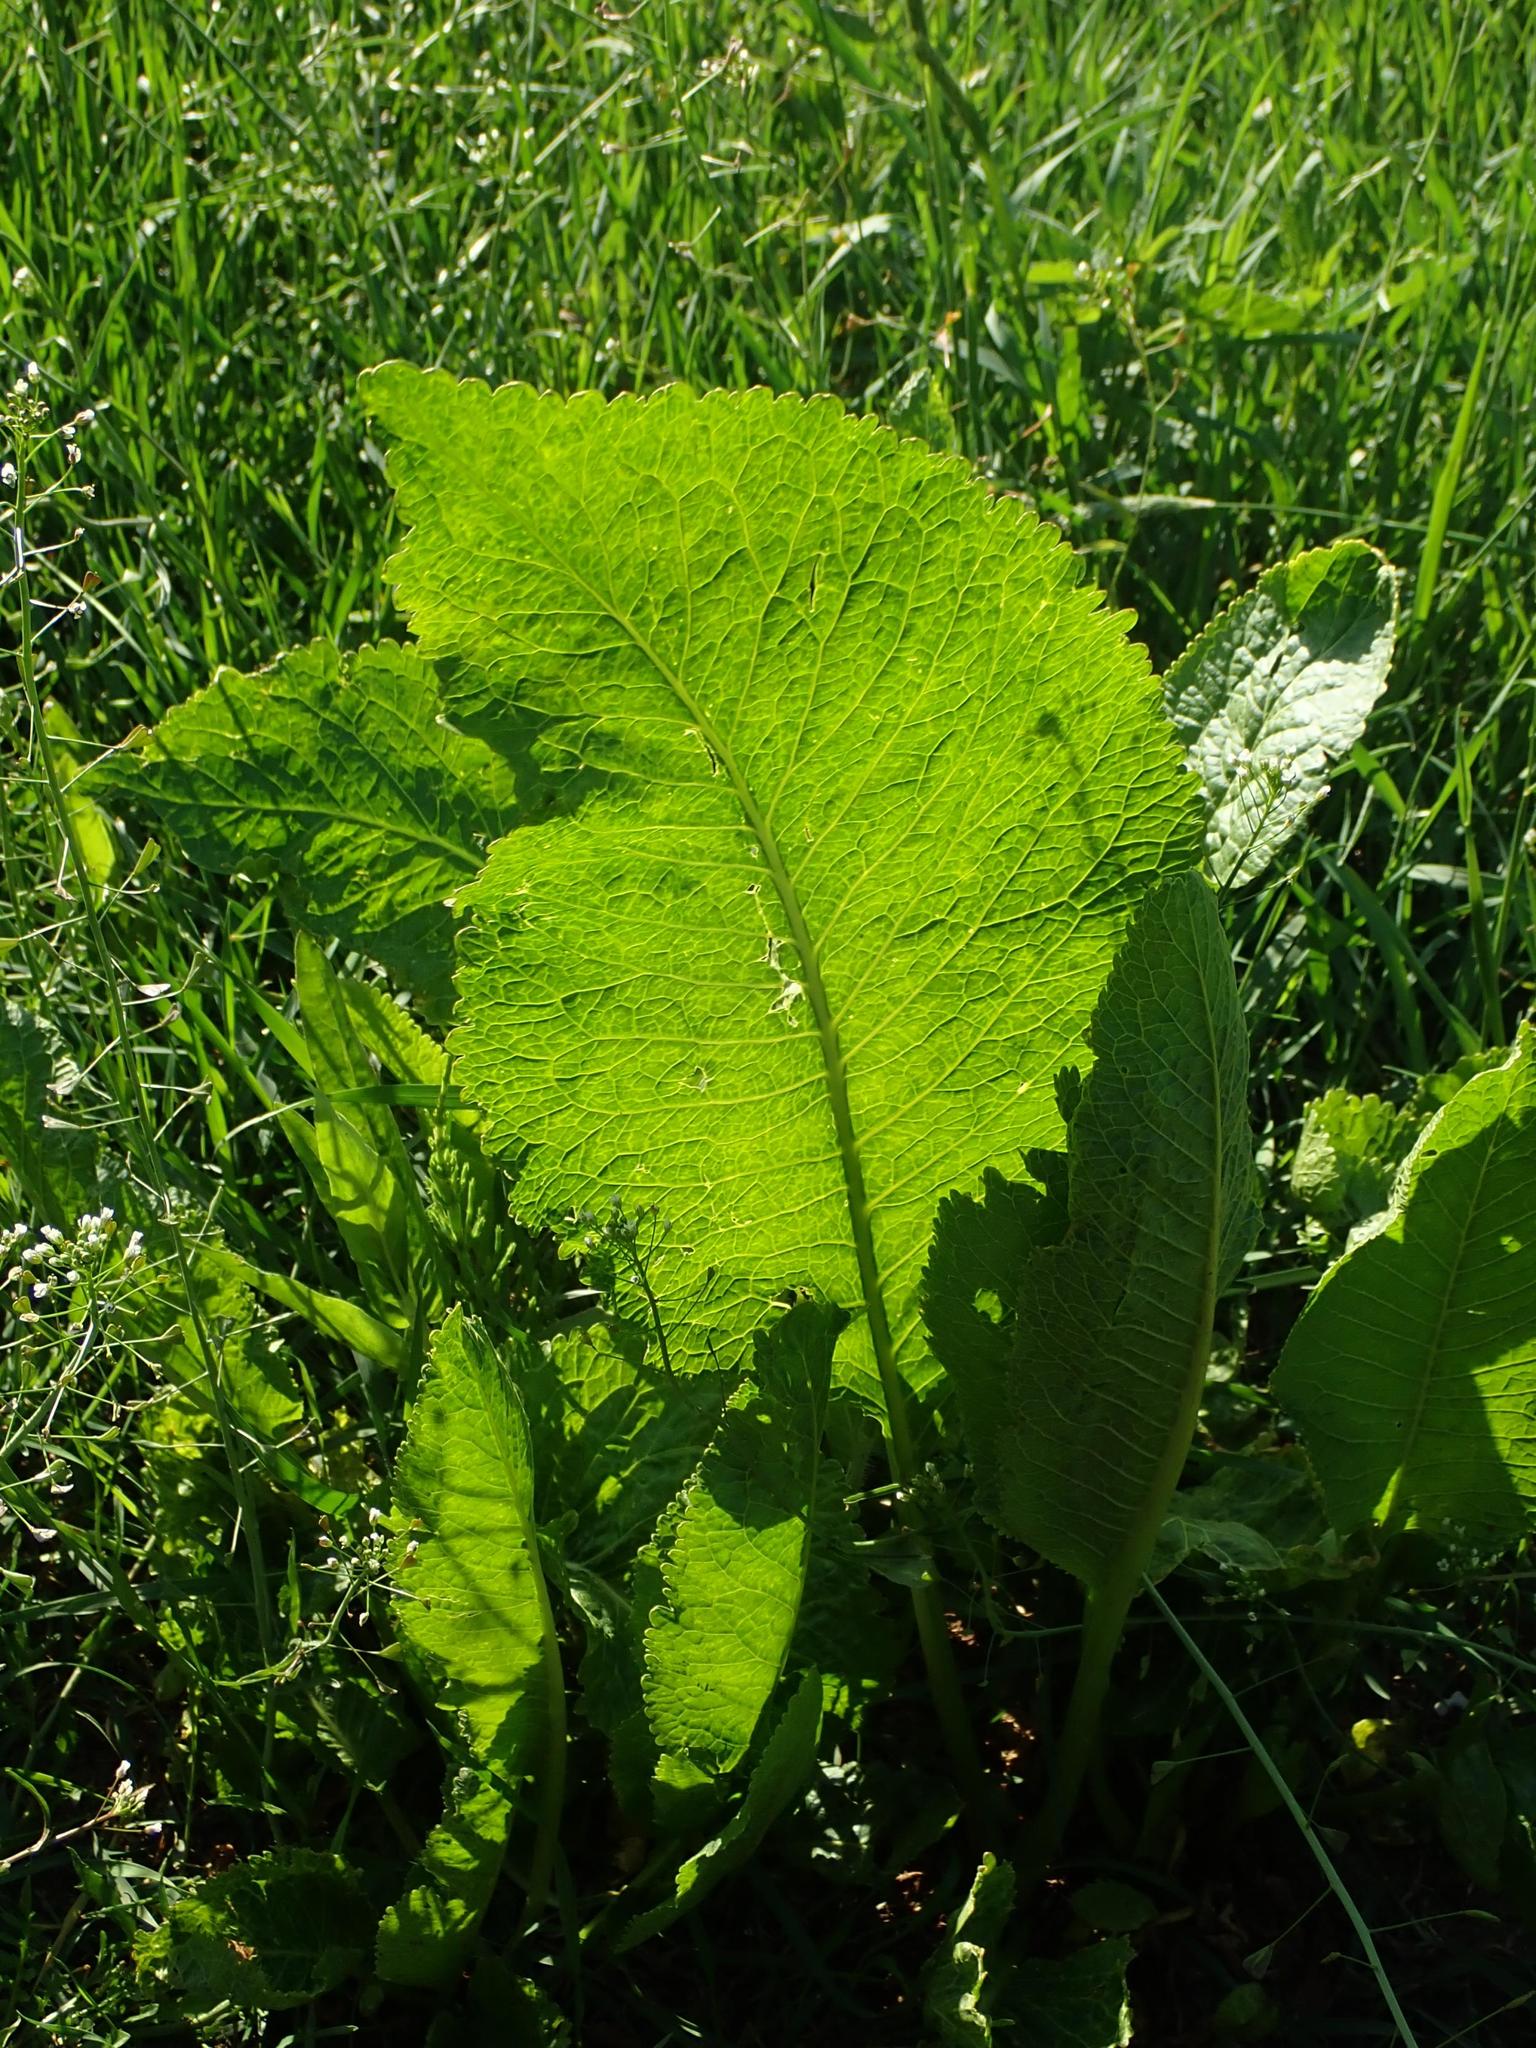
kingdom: Plantae
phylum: Tracheophyta
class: Magnoliopsida
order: Brassicales
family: Brassicaceae
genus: Armoracia
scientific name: Armoracia rusticana
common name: Horseradish
